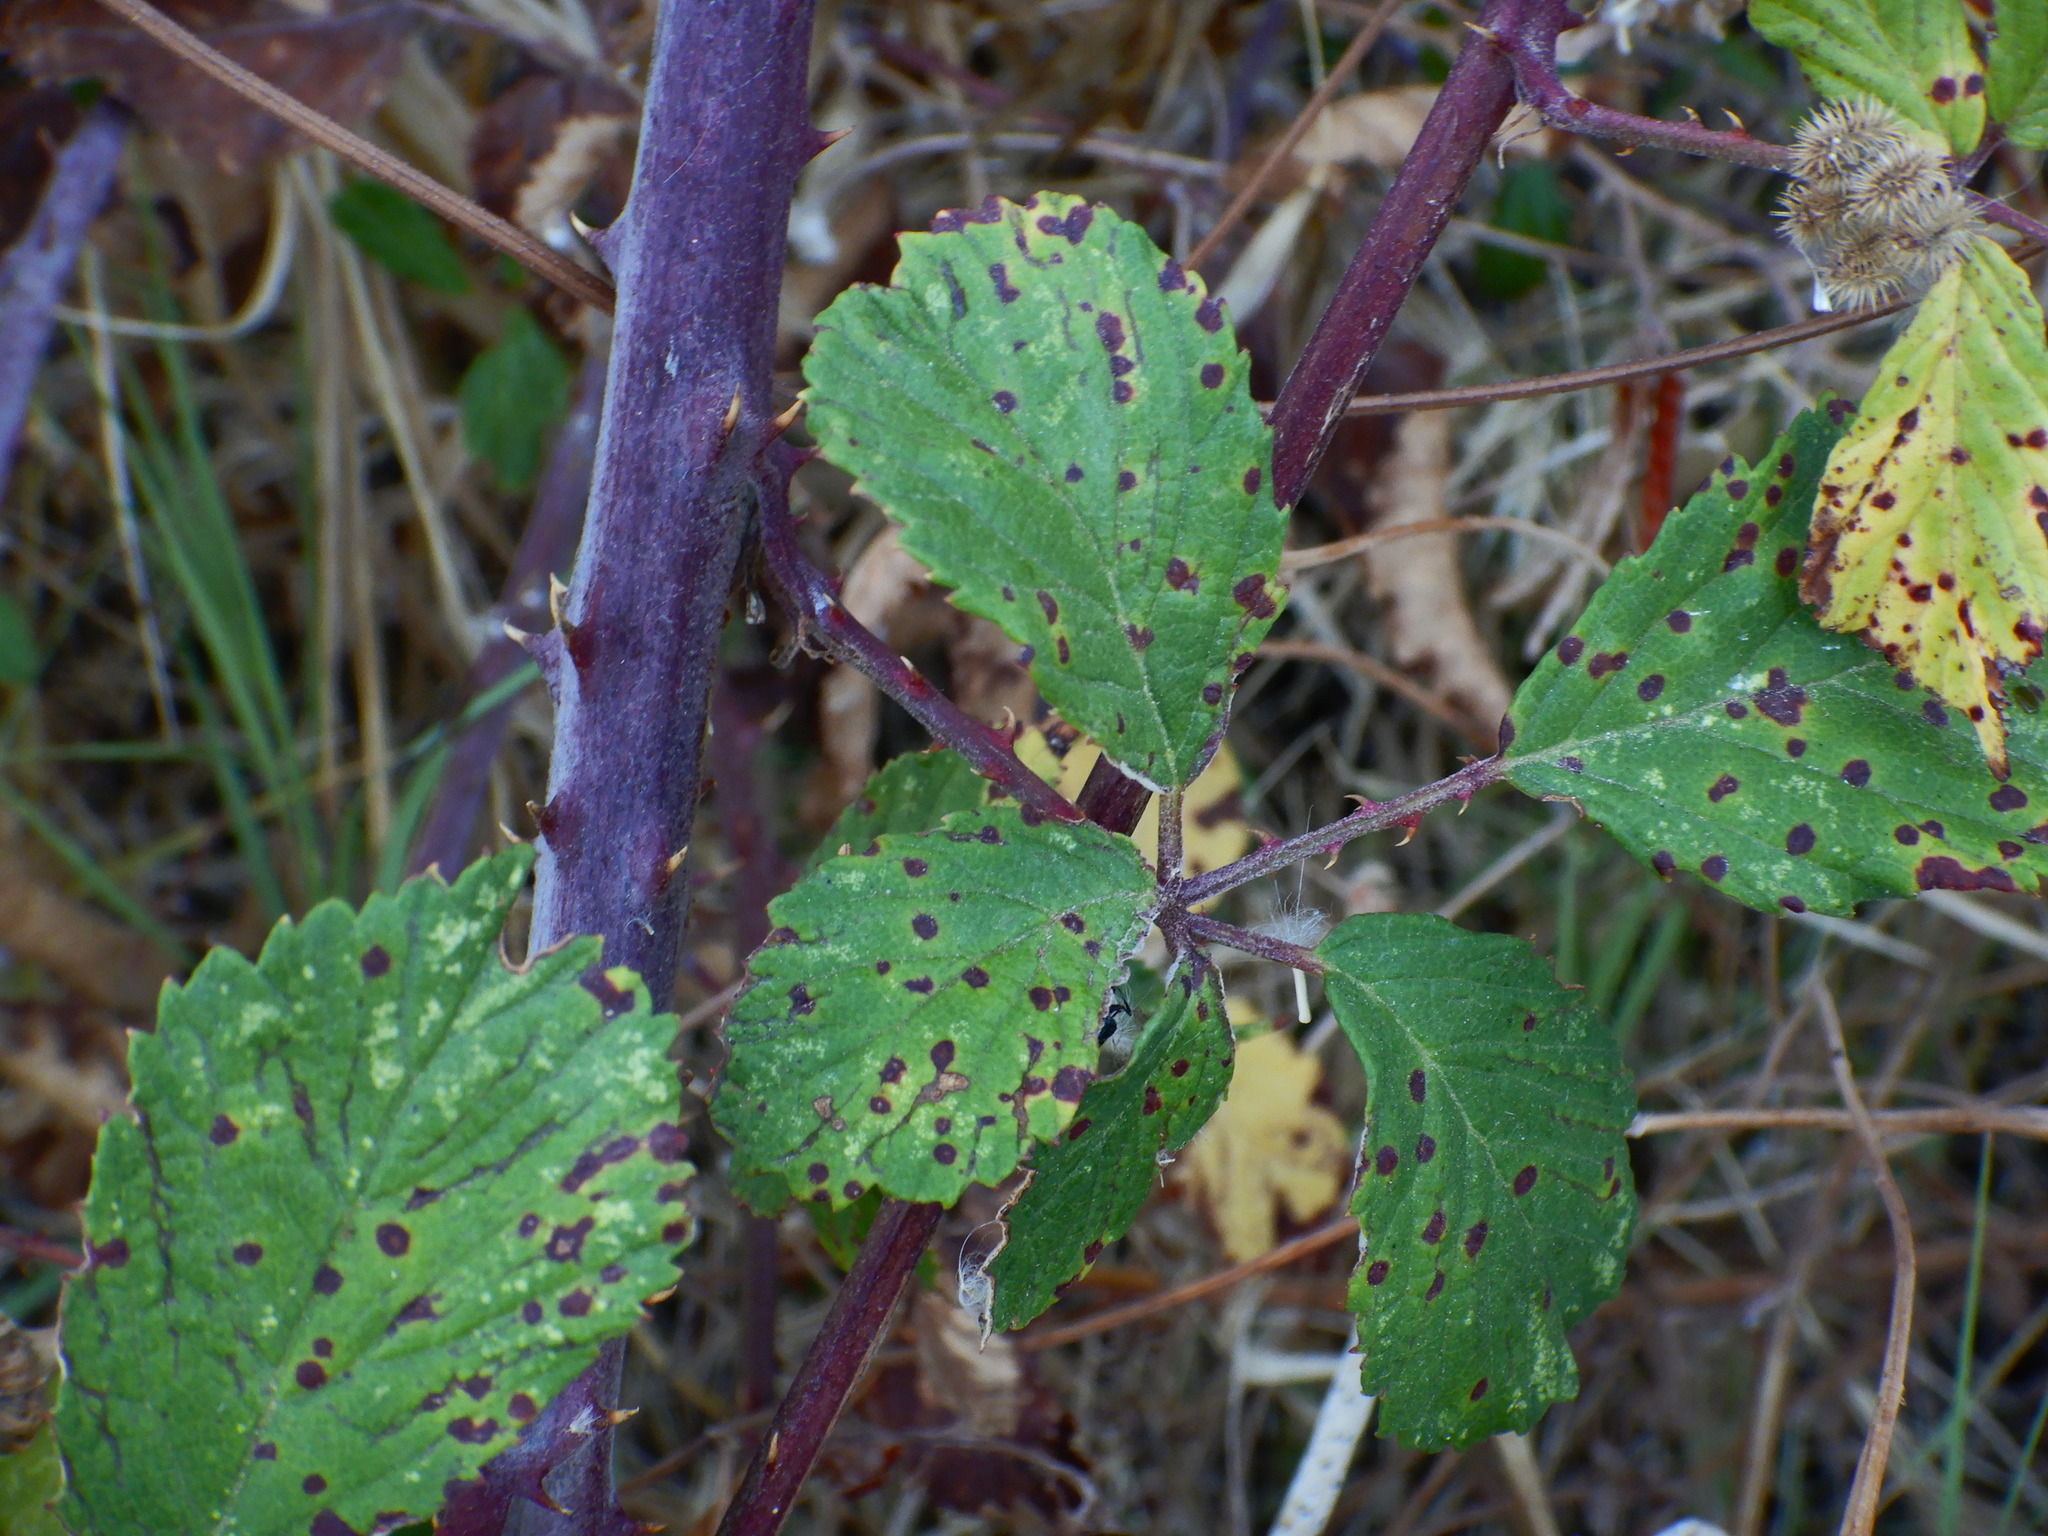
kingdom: Plantae
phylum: Tracheophyta
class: Magnoliopsida
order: Rosales
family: Rosaceae
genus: Rubus
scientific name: Rubus ulmifolius
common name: Elmleaf blackberry
